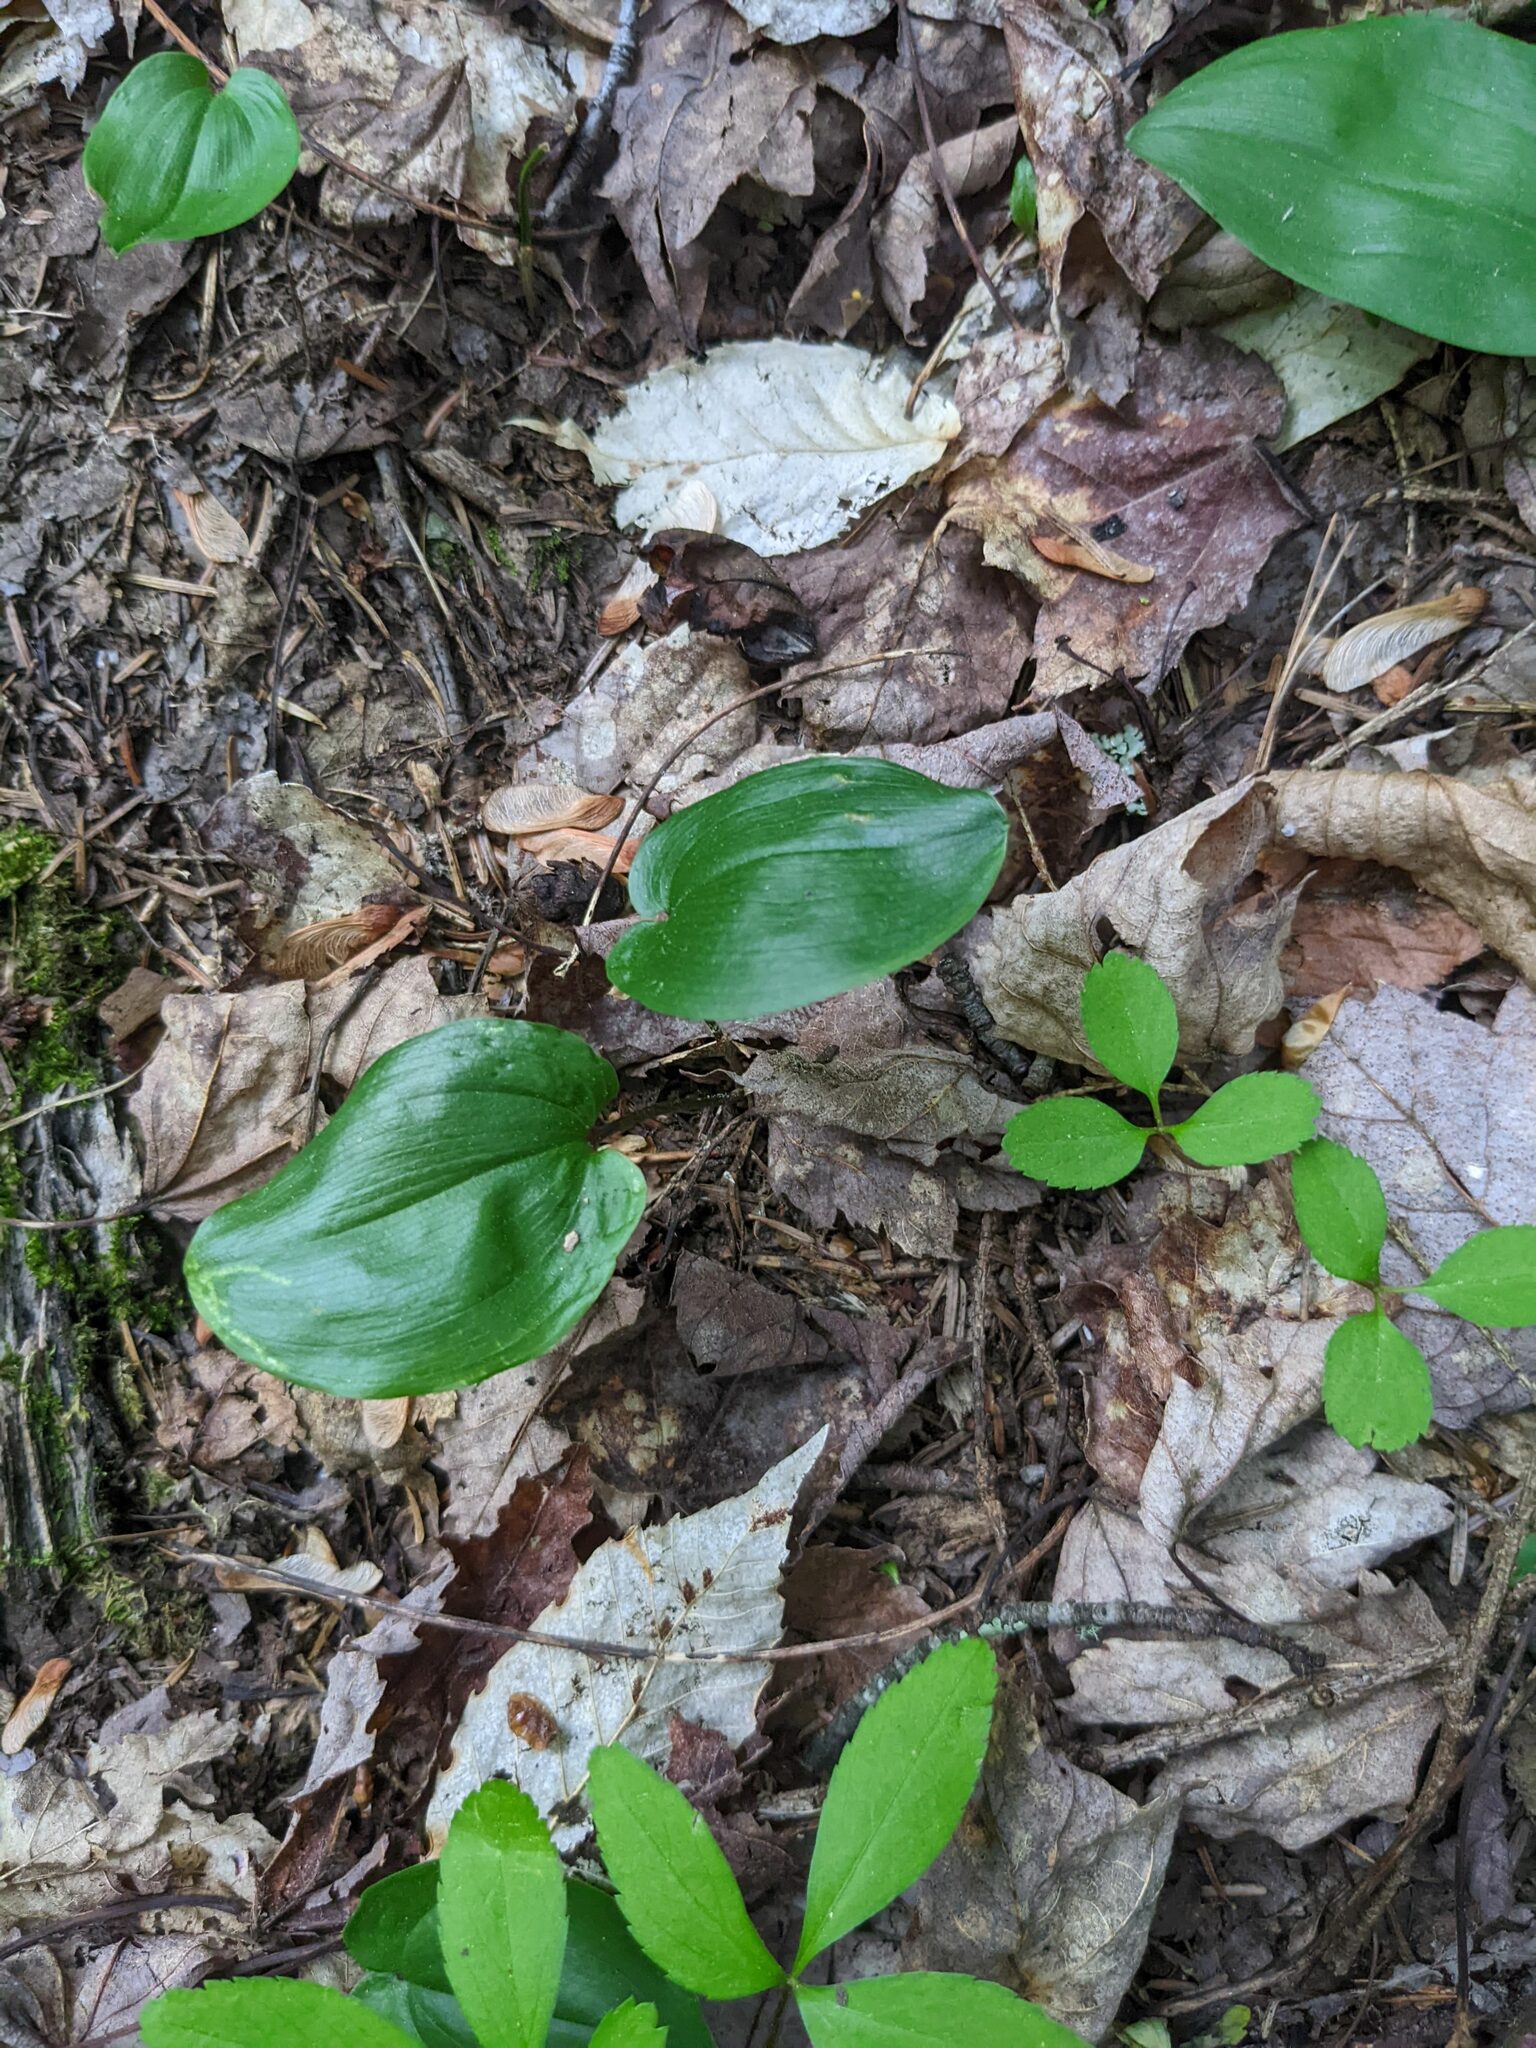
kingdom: Plantae
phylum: Tracheophyta
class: Liliopsida
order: Asparagales
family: Asparagaceae
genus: Maianthemum
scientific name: Maianthemum canadense
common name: False lily-of-the-valley
